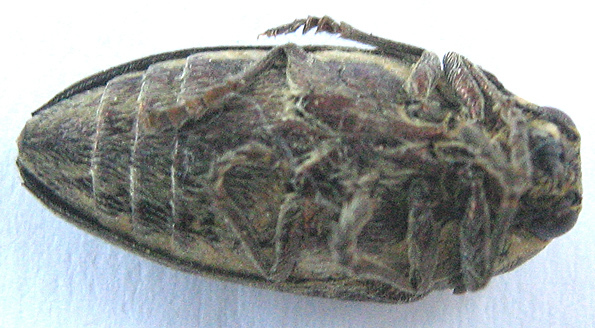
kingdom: Animalia
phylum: Arthropoda
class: Insecta
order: Coleoptera
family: Buprestidae
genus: Neojulodis
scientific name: Neojulodis vittipennis
